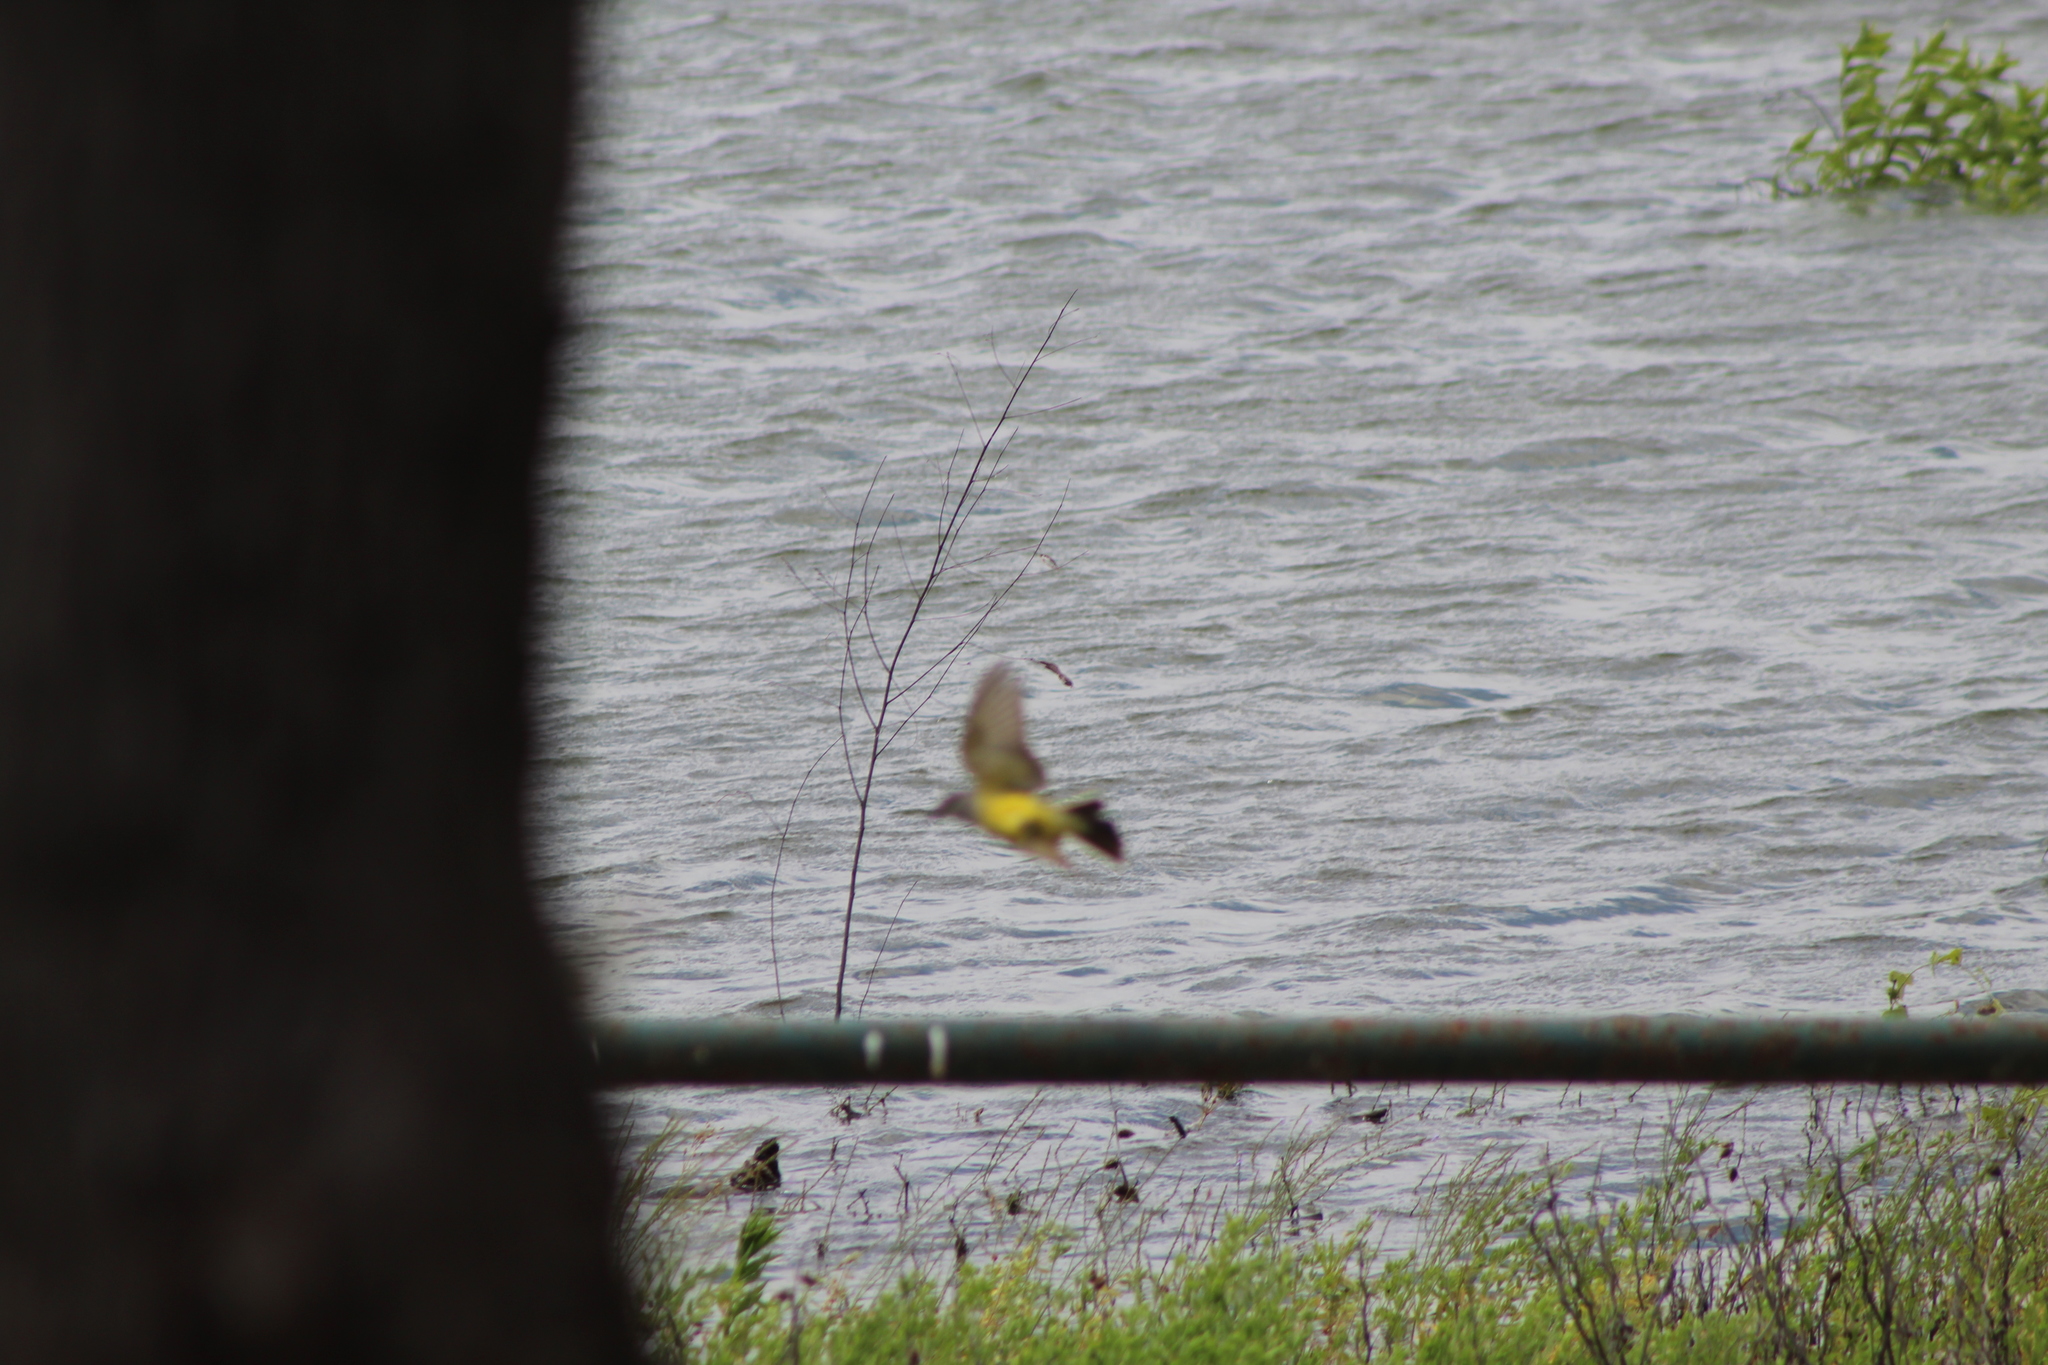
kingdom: Animalia
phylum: Chordata
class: Aves
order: Passeriformes
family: Tyrannidae
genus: Tyrannus
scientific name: Tyrannus verticalis
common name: Western kingbird
